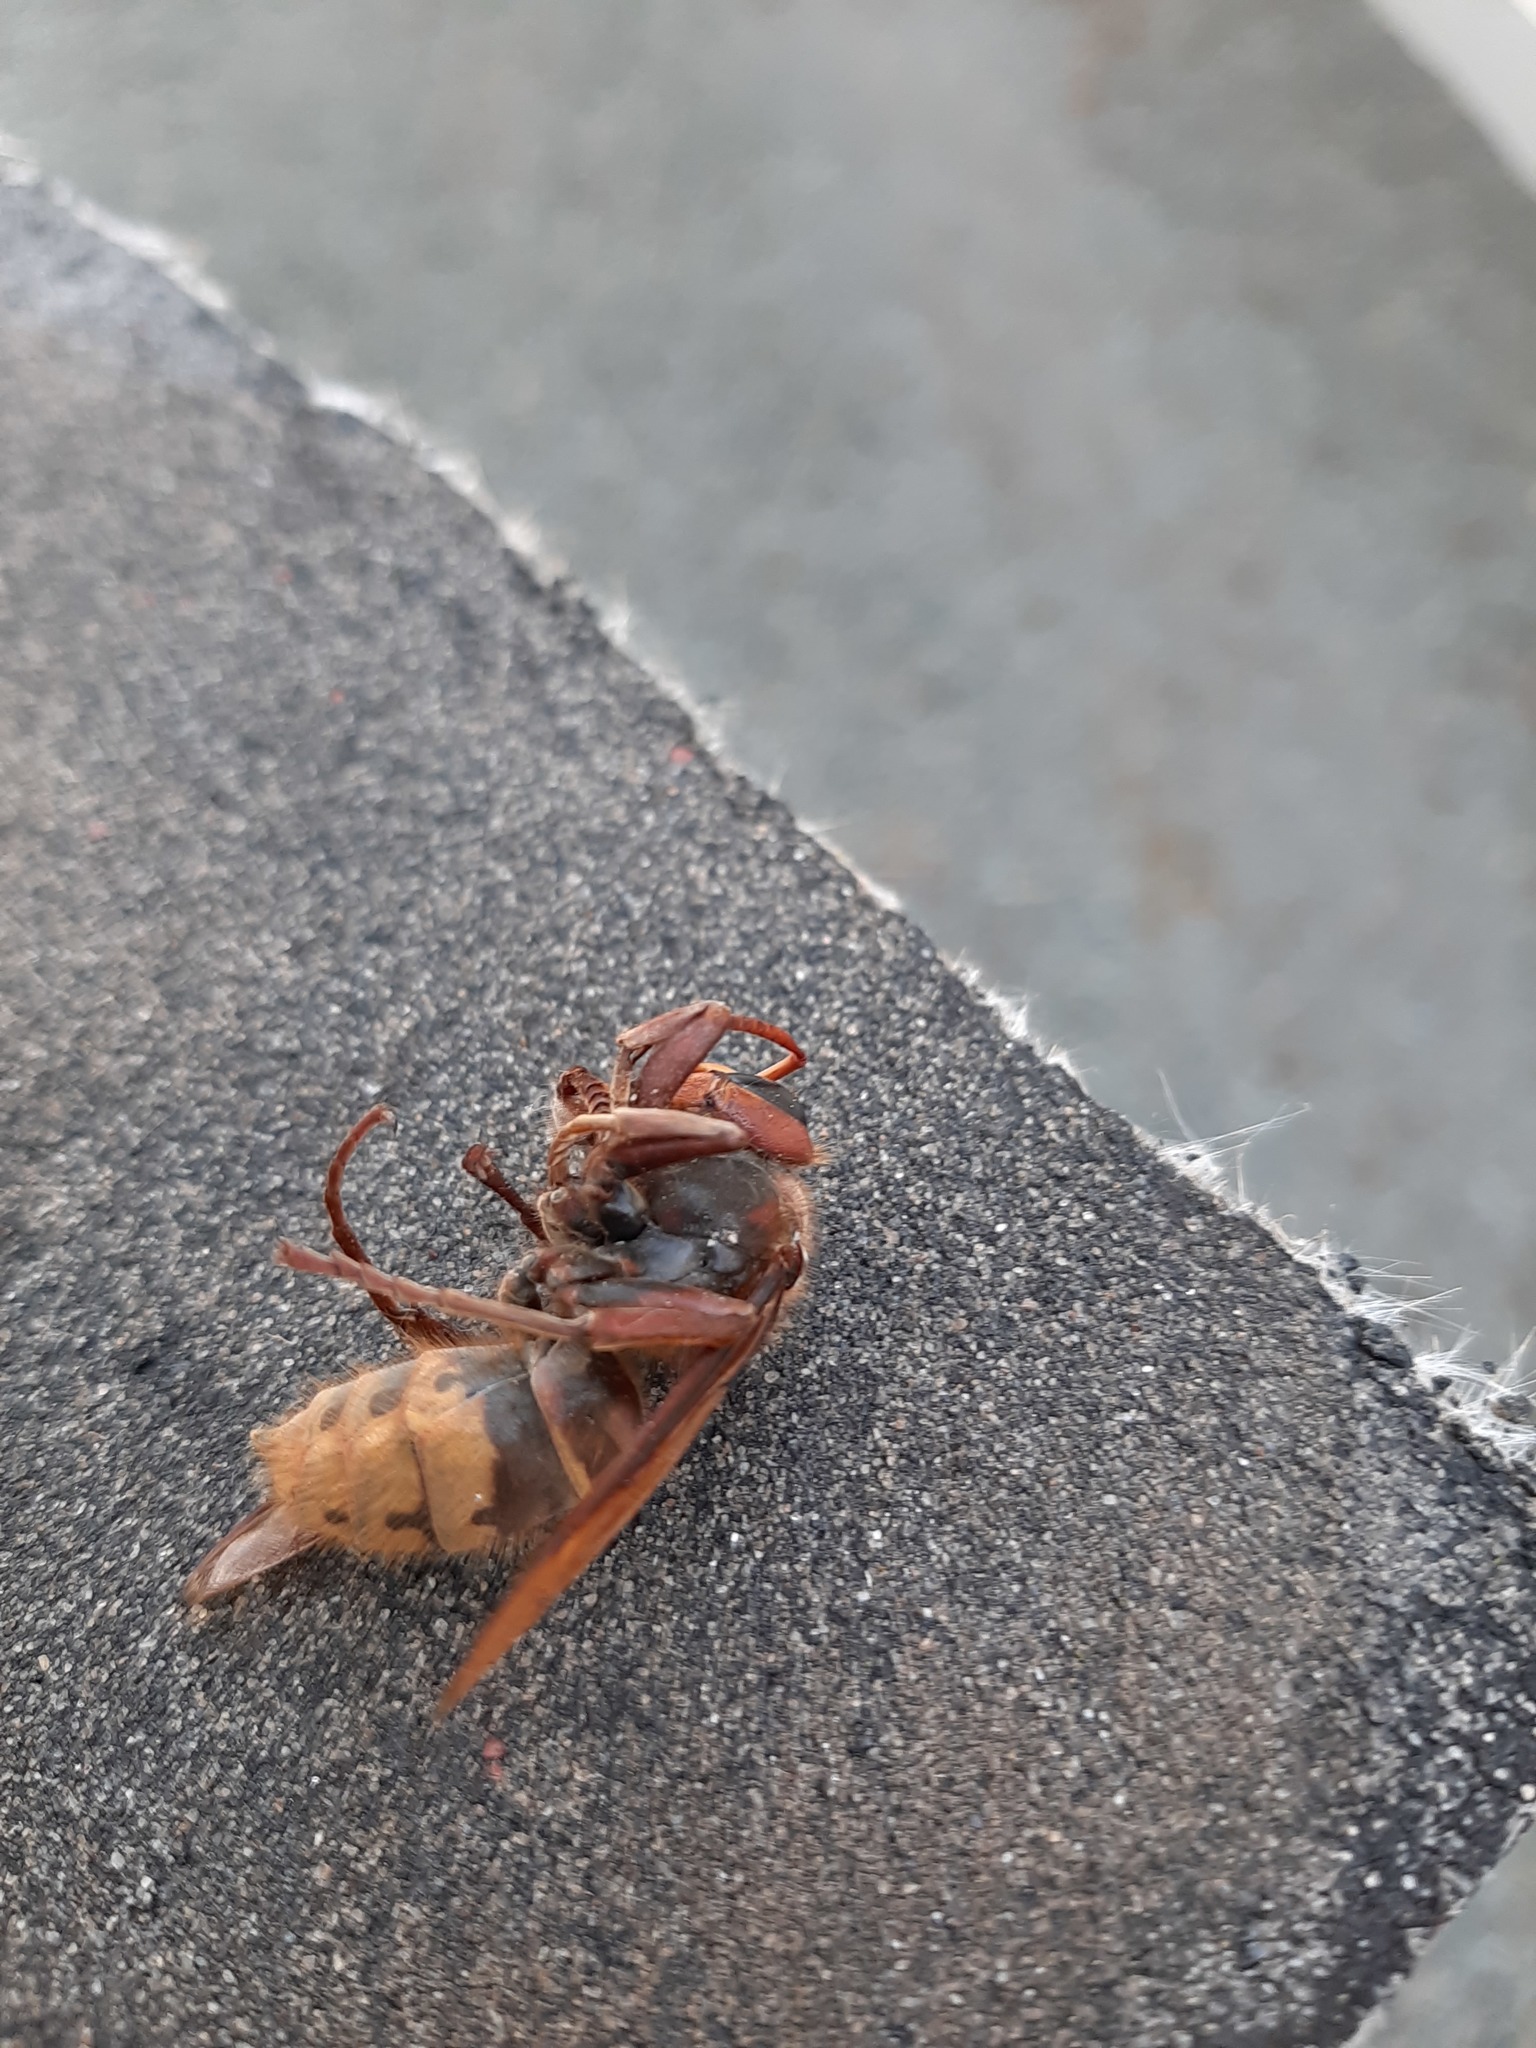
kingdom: Animalia
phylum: Arthropoda
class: Insecta
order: Hymenoptera
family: Vespidae
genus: Vespa
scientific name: Vespa crabro
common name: Hornet
